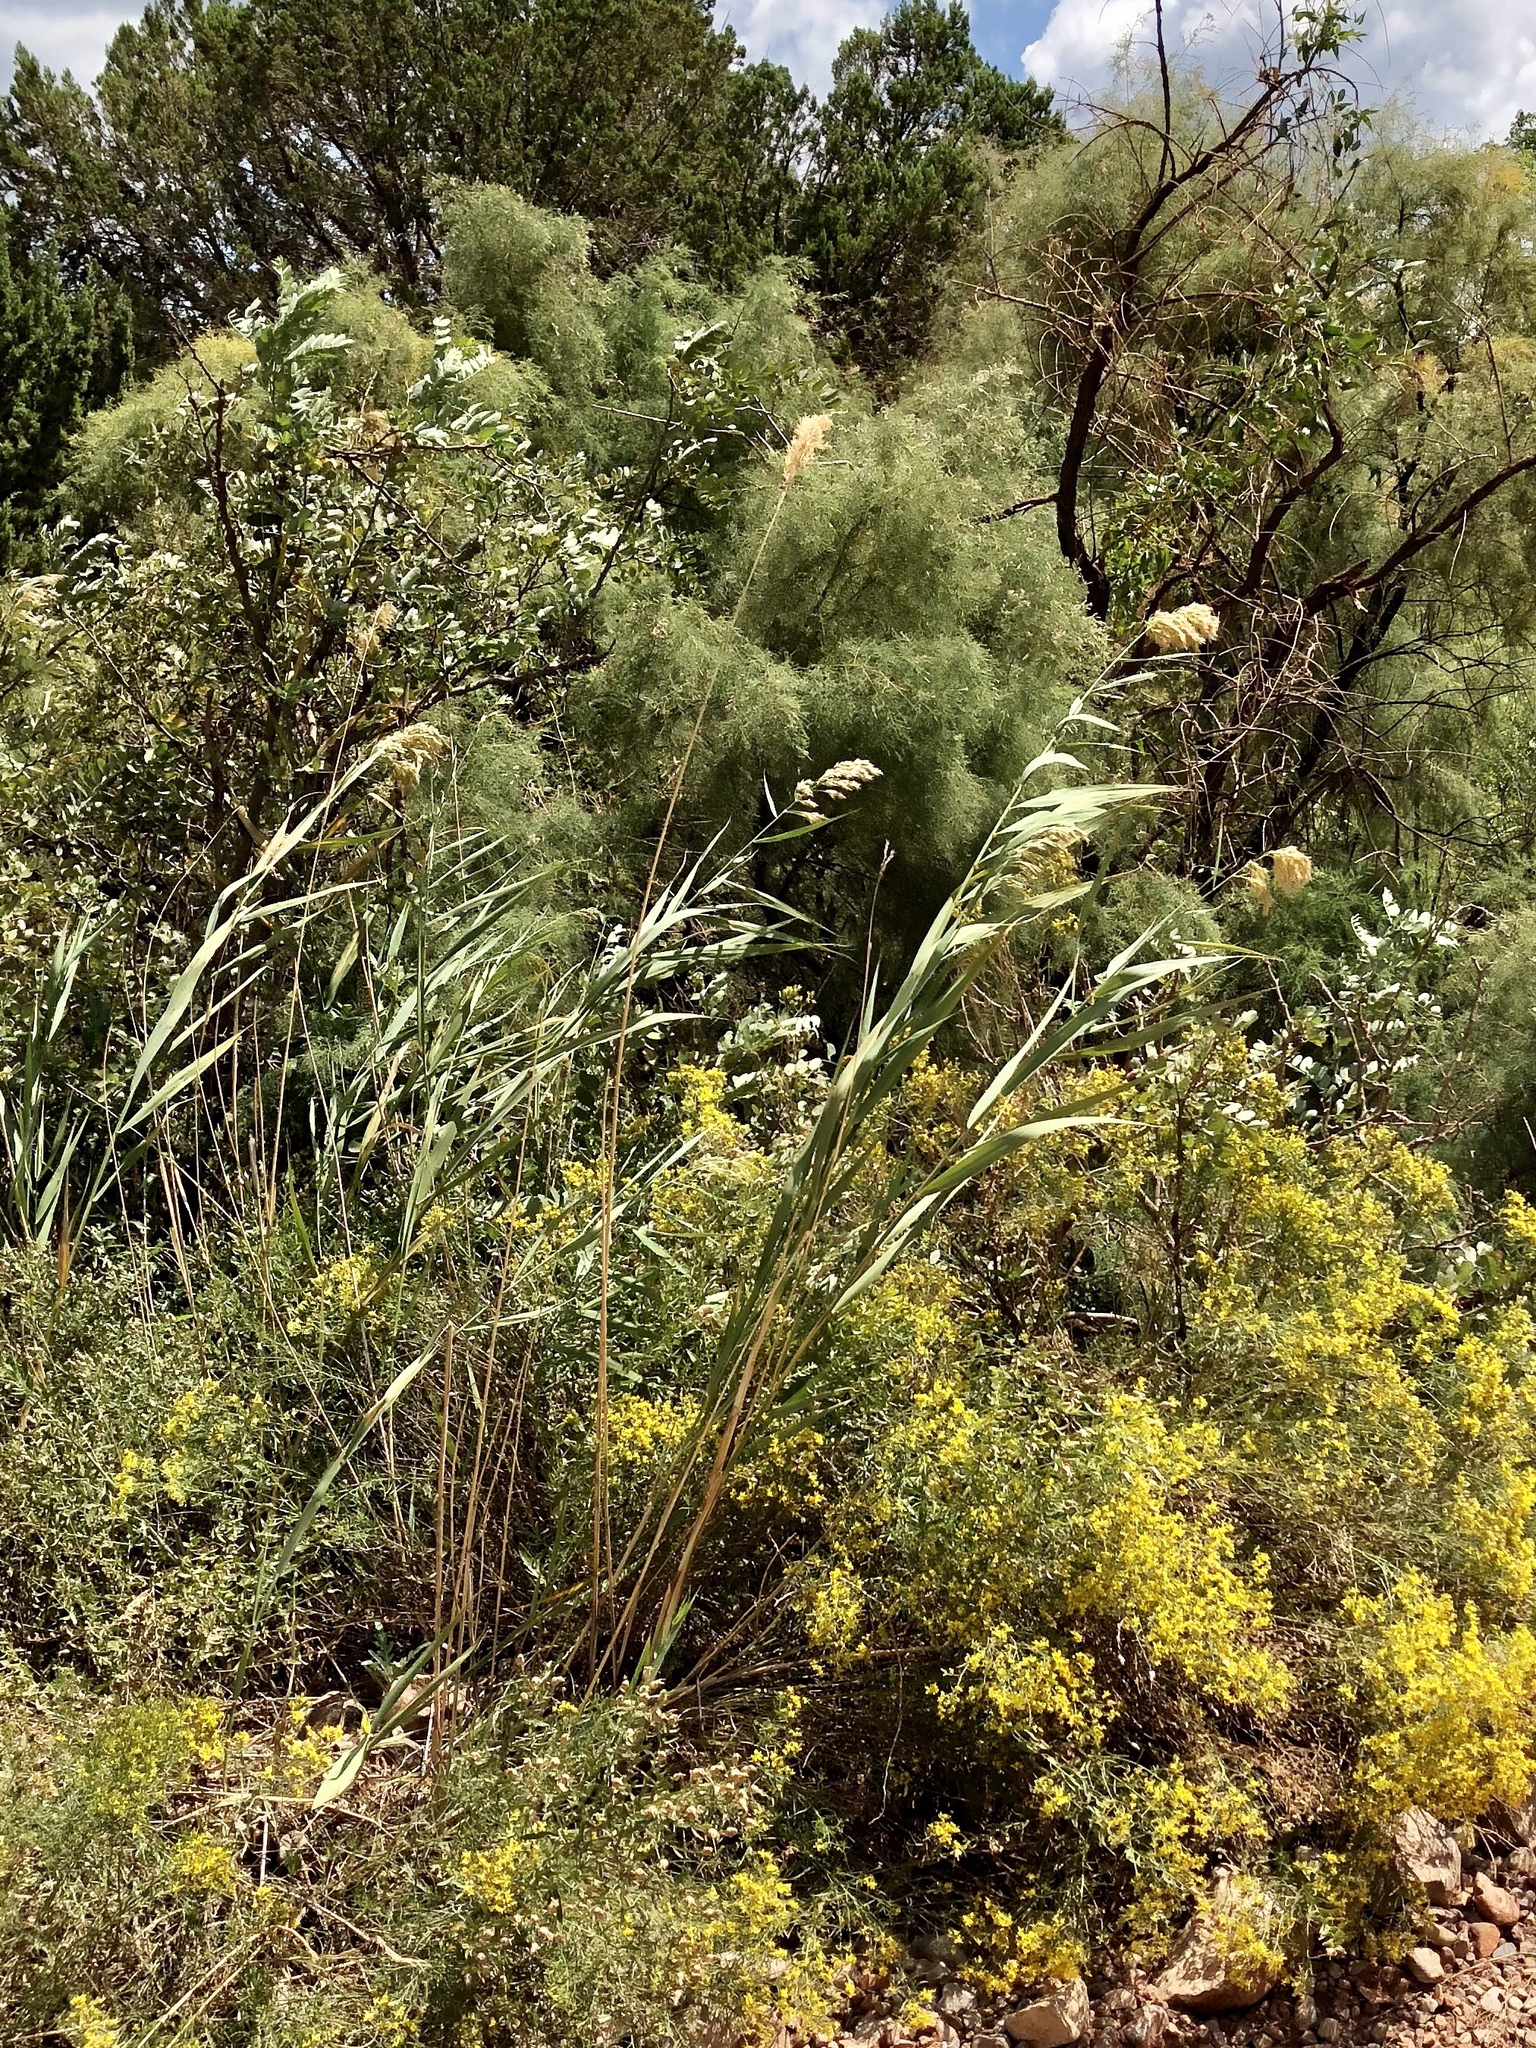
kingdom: Plantae
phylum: Tracheophyta
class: Liliopsida
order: Poales
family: Poaceae
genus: Phragmites
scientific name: Phragmites australis
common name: Common reed
